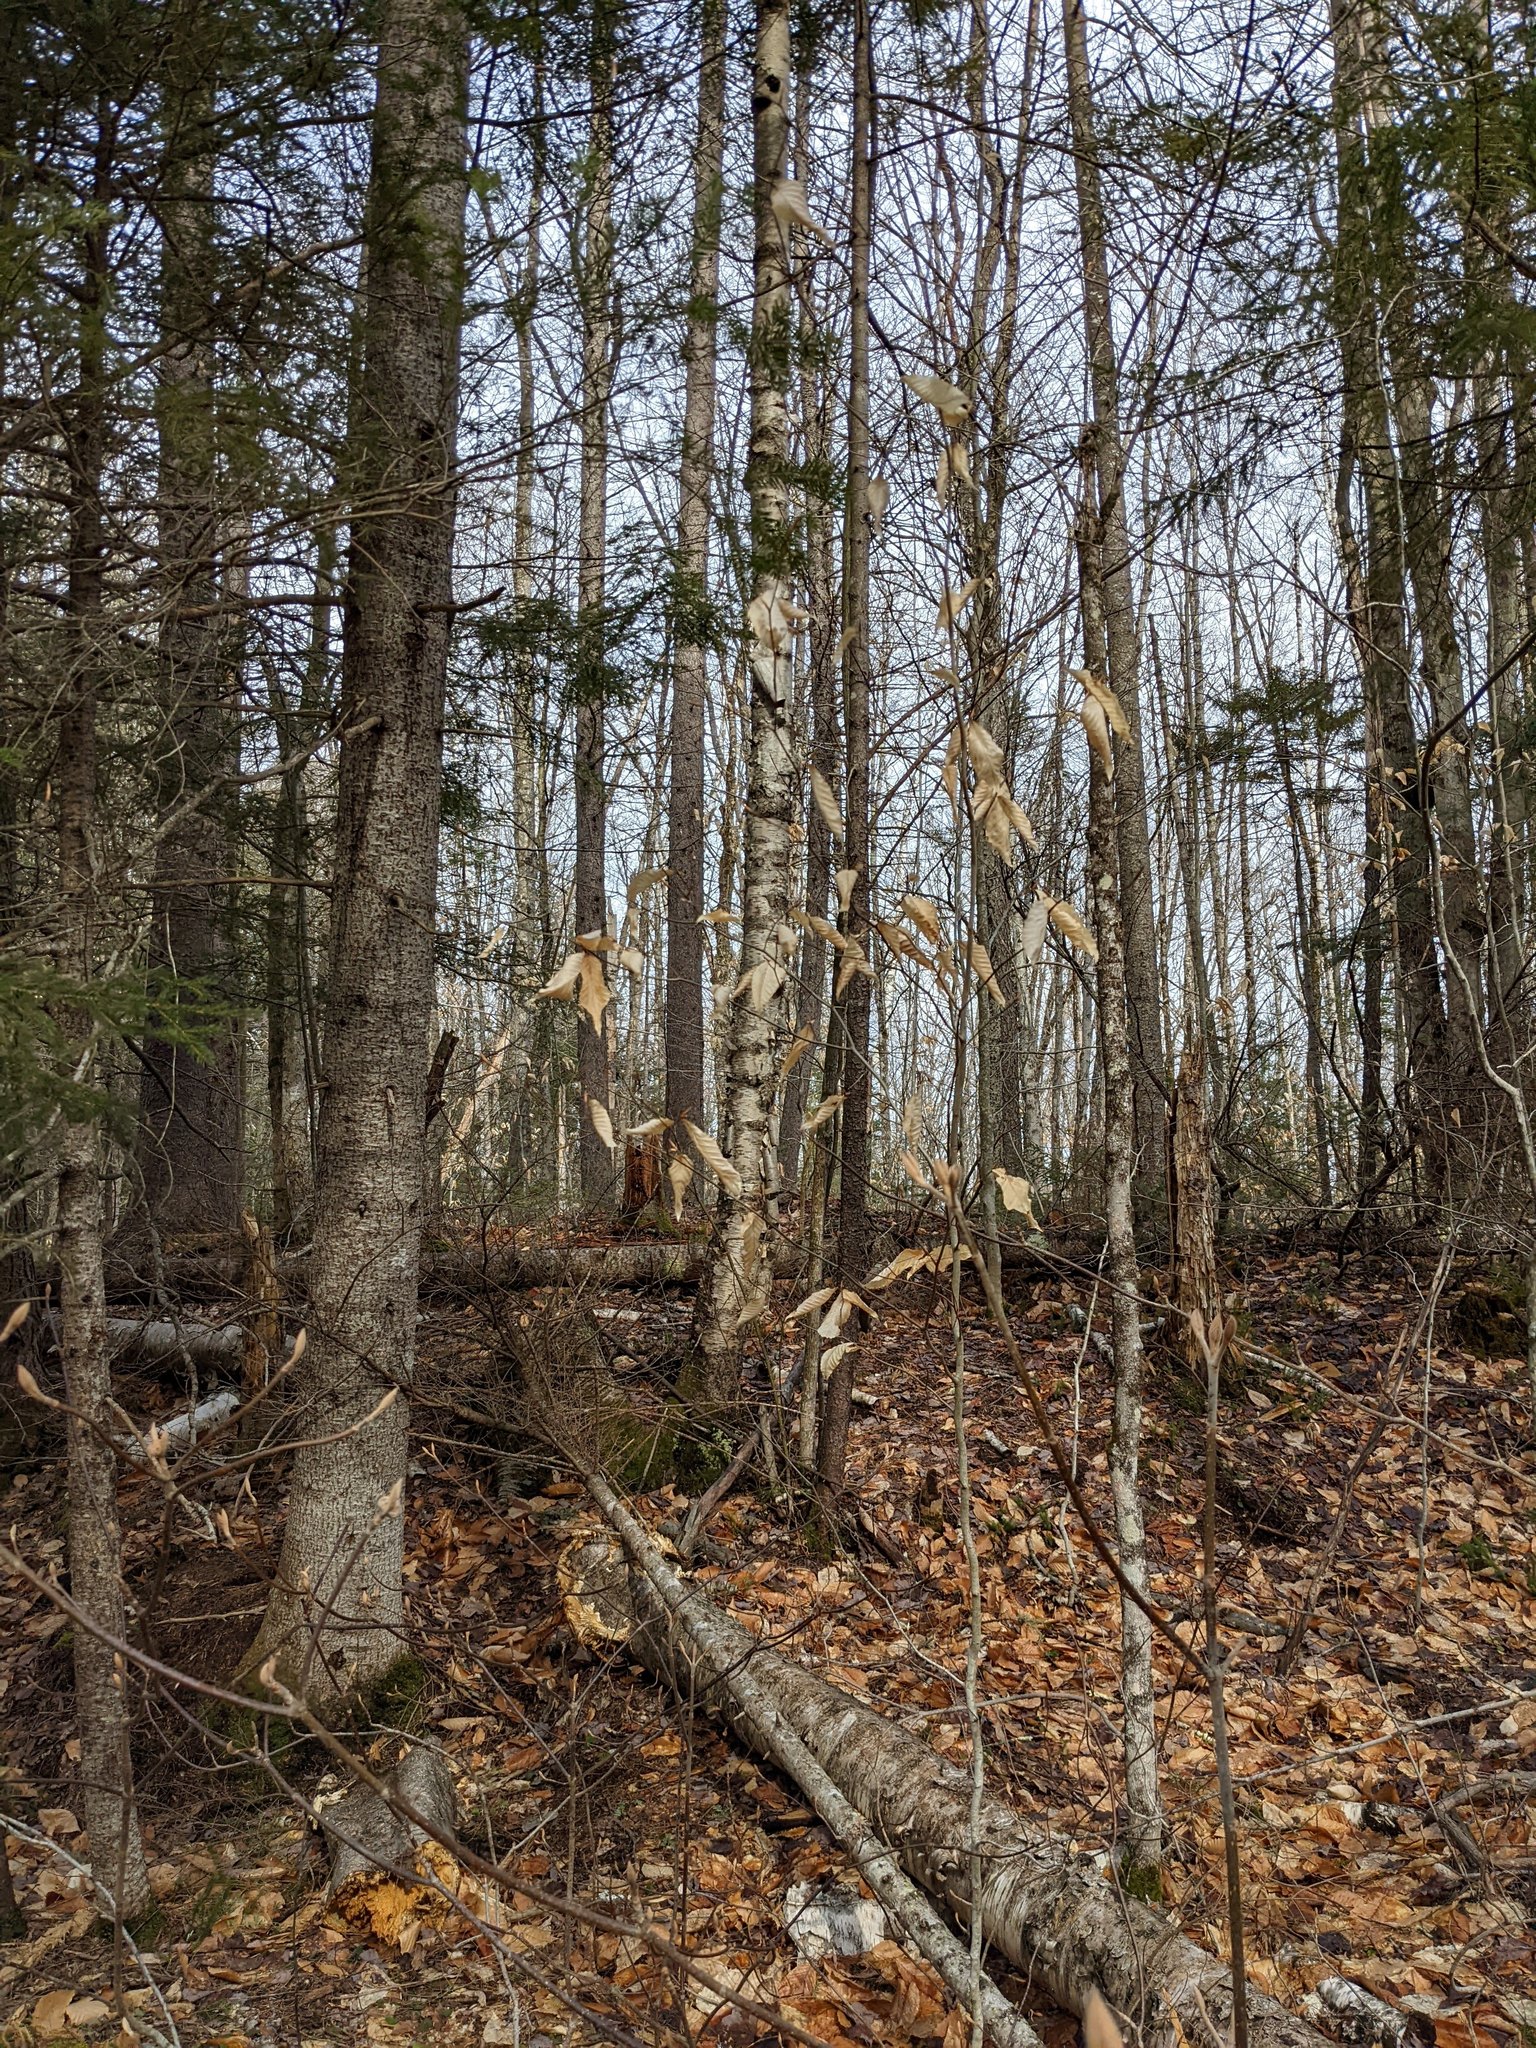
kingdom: Plantae
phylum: Tracheophyta
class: Magnoliopsida
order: Fagales
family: Fagaceae
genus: Fagus
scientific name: Fagus grandifolia
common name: American beech
